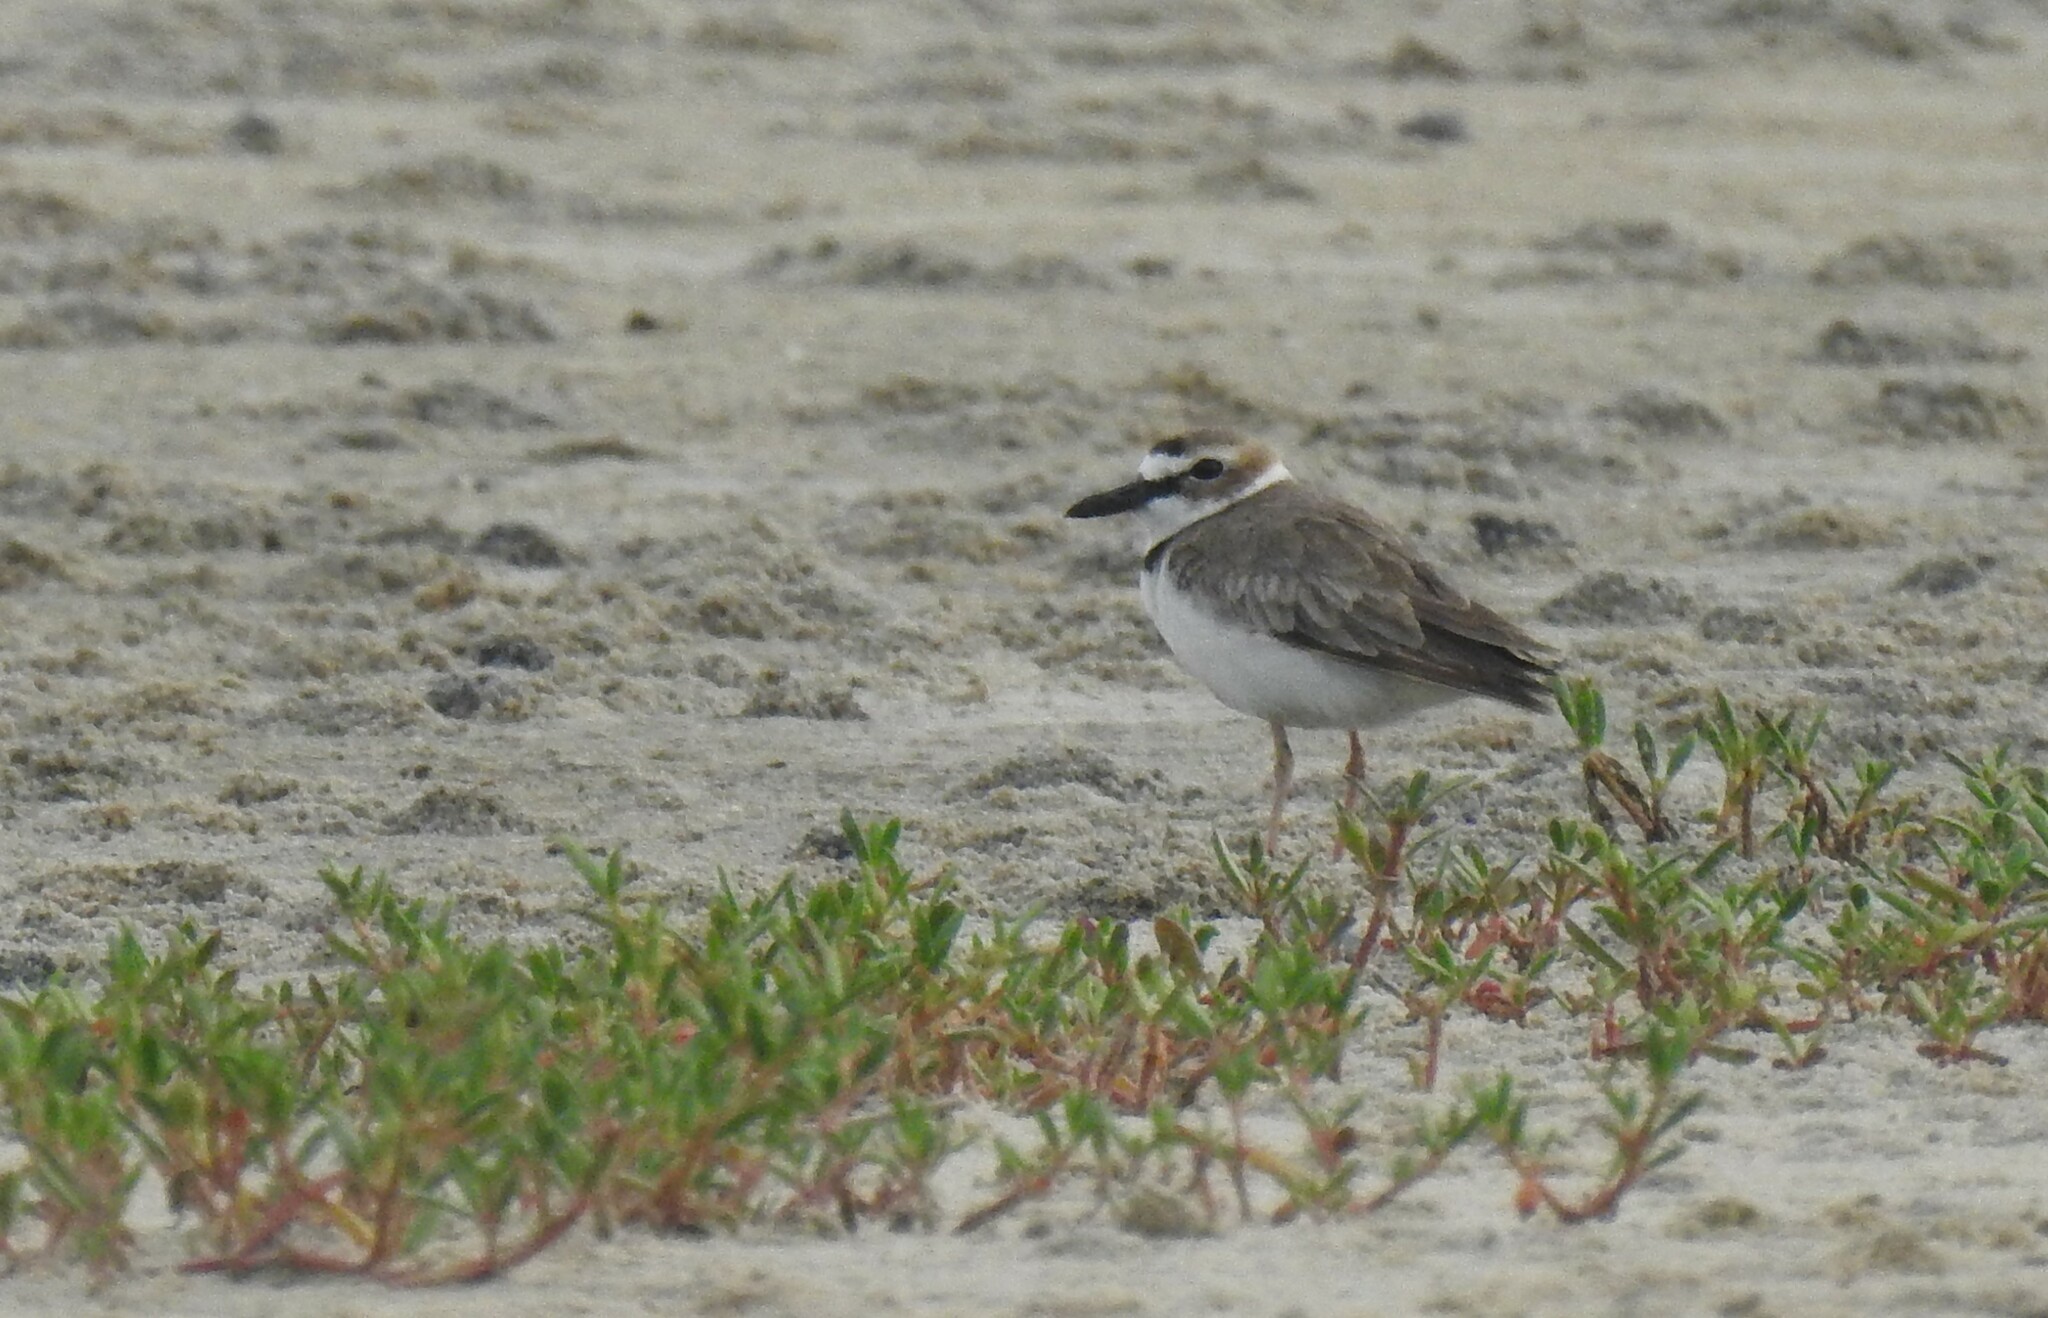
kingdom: Animalia
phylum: Chordata
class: Aves
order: Charadriiformes
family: Charadriidae
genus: Anarhynchus
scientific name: Anarhynchus
